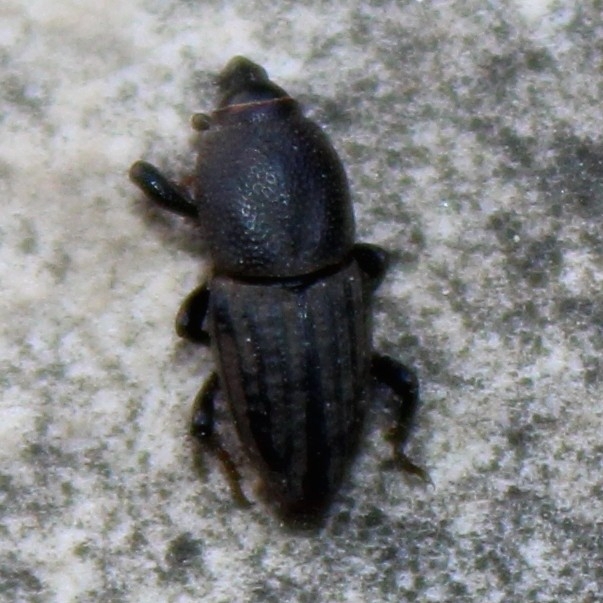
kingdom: Animalia
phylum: Arthropoda
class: Insecta
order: Coleoptera
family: Dryophthoridae
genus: Sphenophorus
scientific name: Sphenophorus interstitialis
